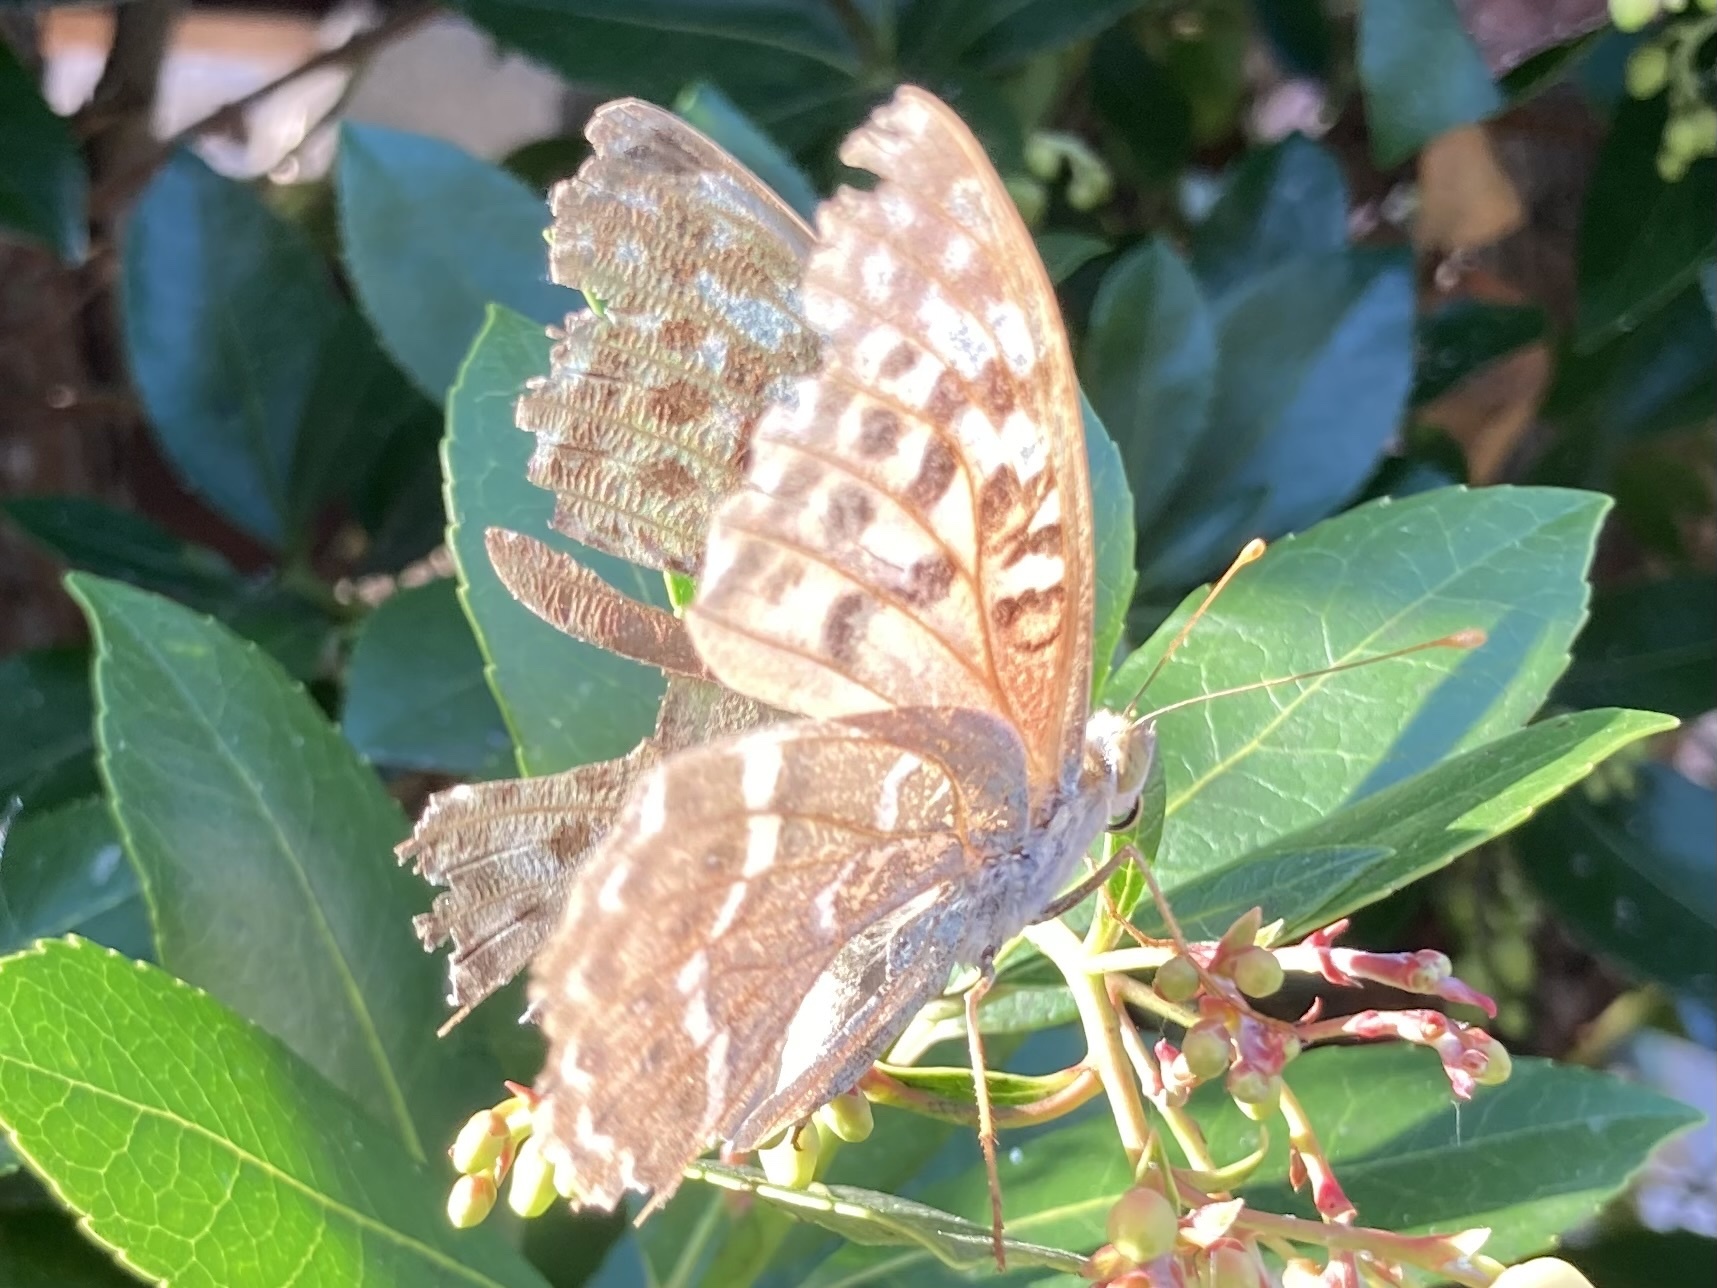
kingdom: Animalia
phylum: Arthropoda
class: Insecta
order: Lepidoptera
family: Nymphalidae
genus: Damora
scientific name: Damora pandora
